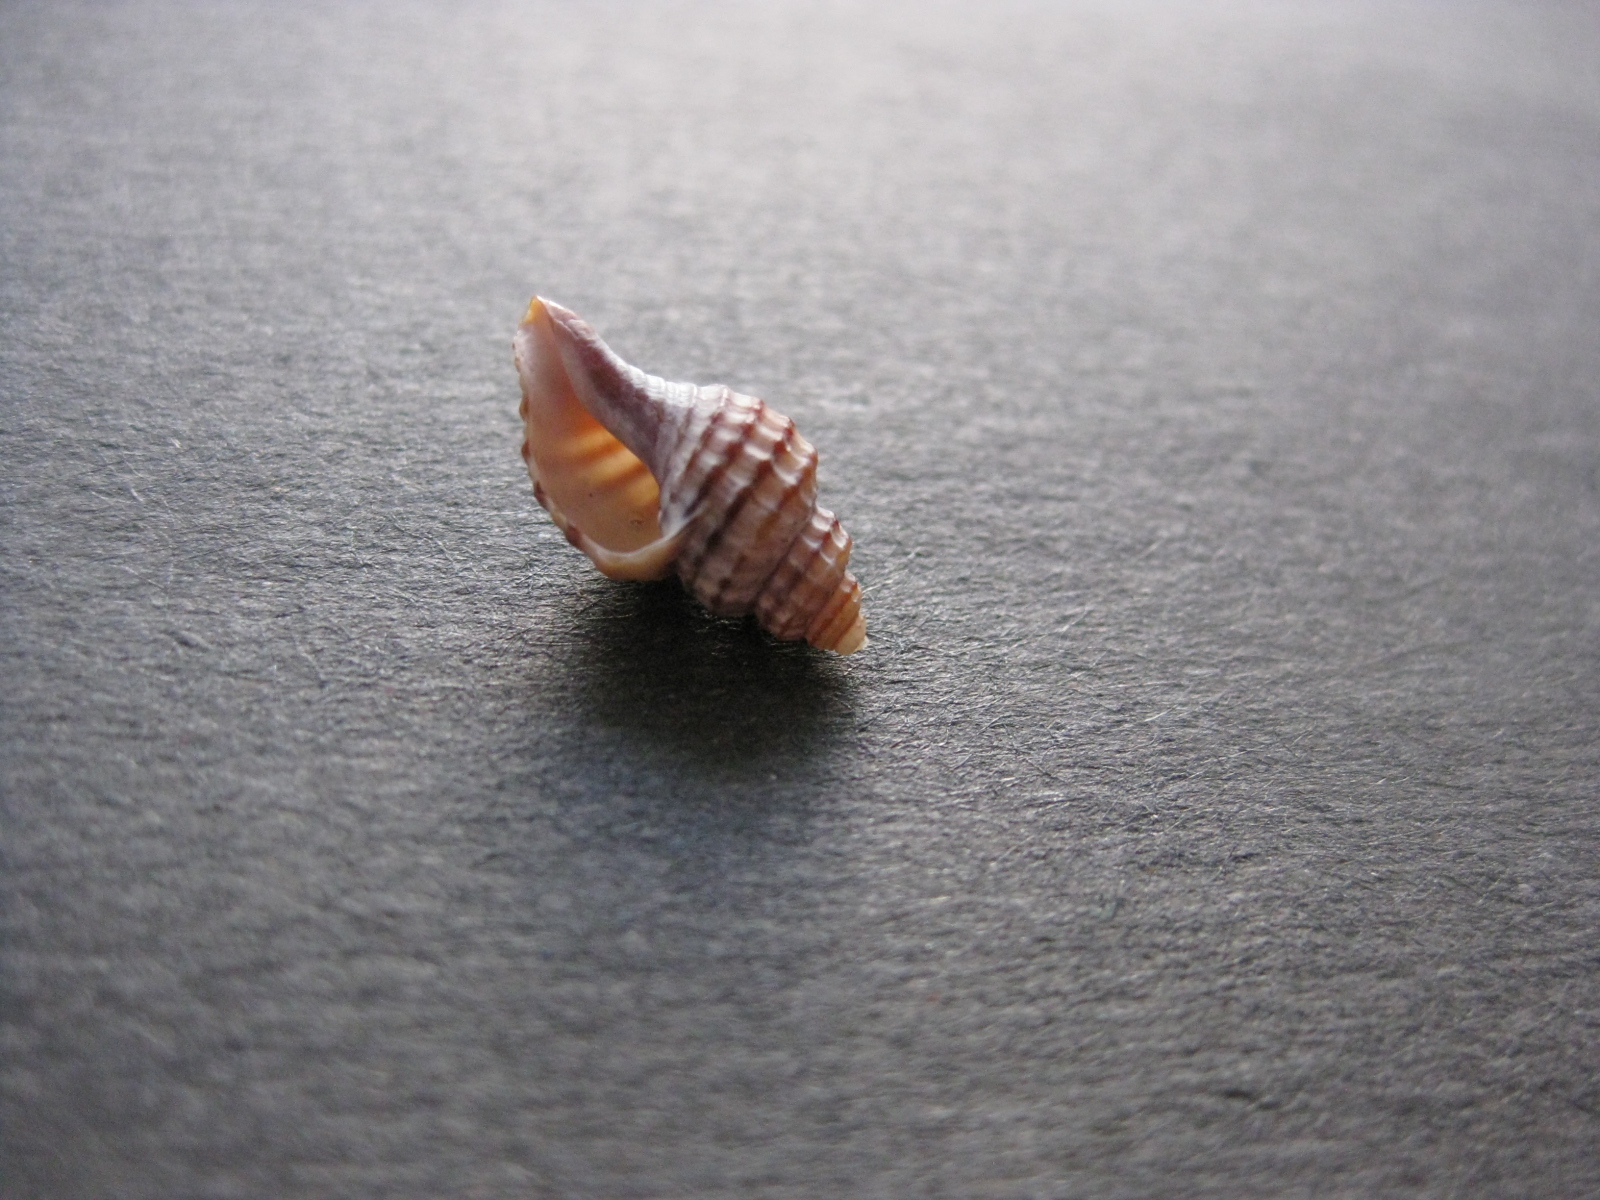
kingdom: Animalia
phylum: Mollusca
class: Gastropoda
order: Neogastropoda
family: Muricidae
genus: Xymene
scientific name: Xymene plebeius
